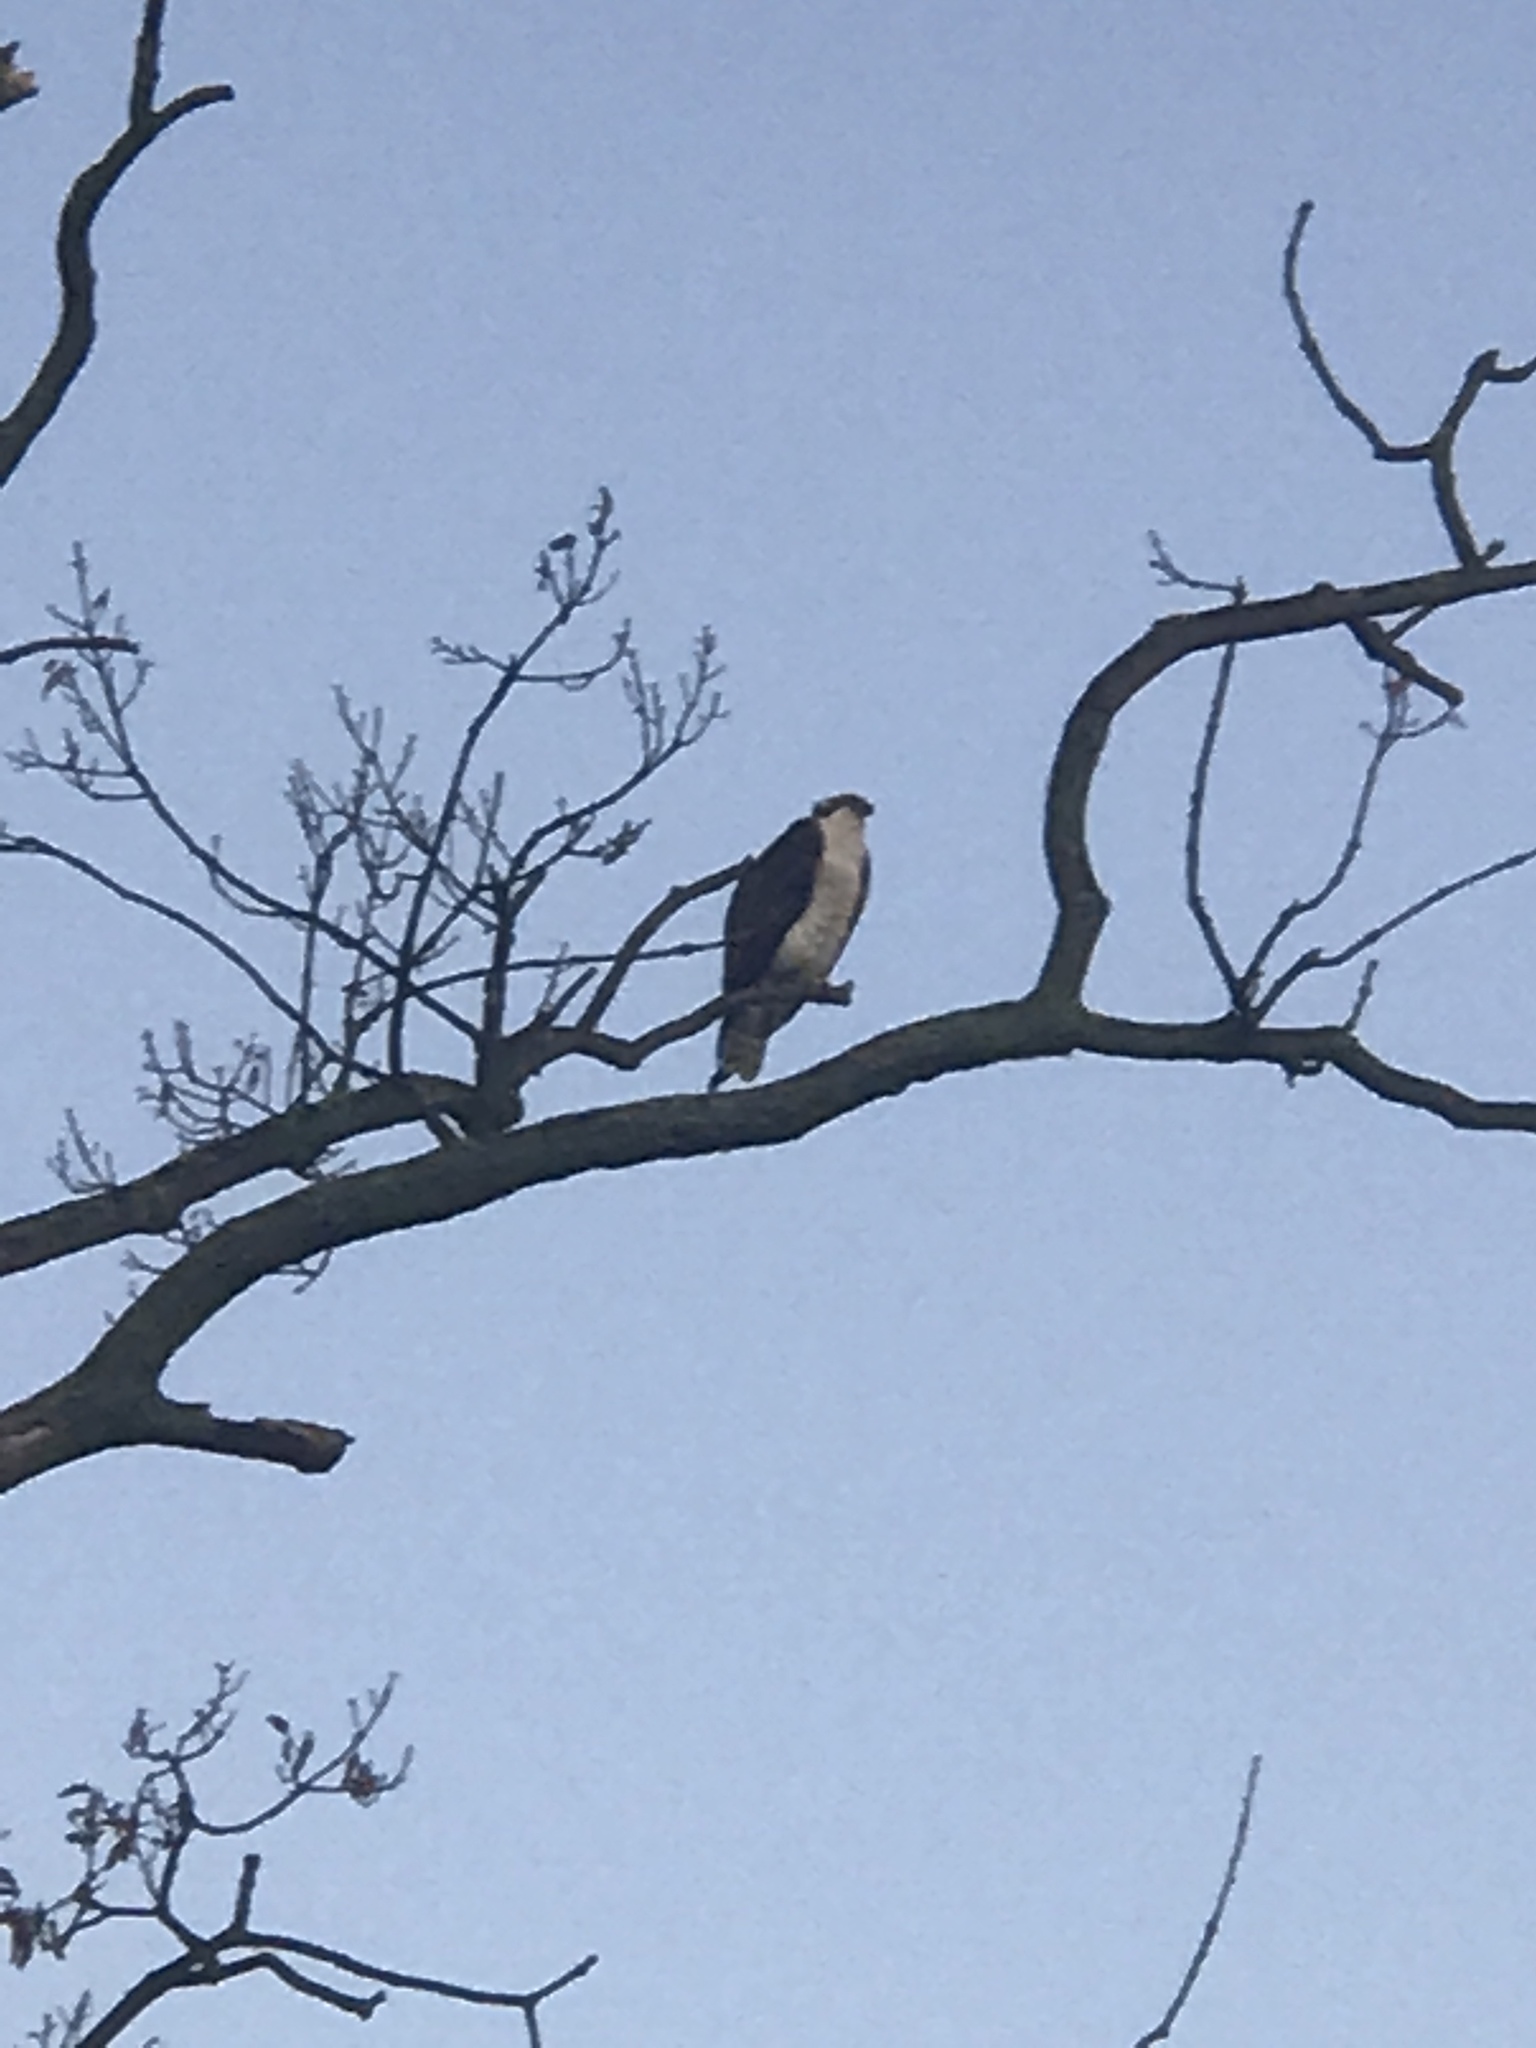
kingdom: Animalia
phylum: Chordata
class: Aves
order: Accipitriformes
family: Pandionidae
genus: Pandion
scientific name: Pandion haliaetus
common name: Osprey
